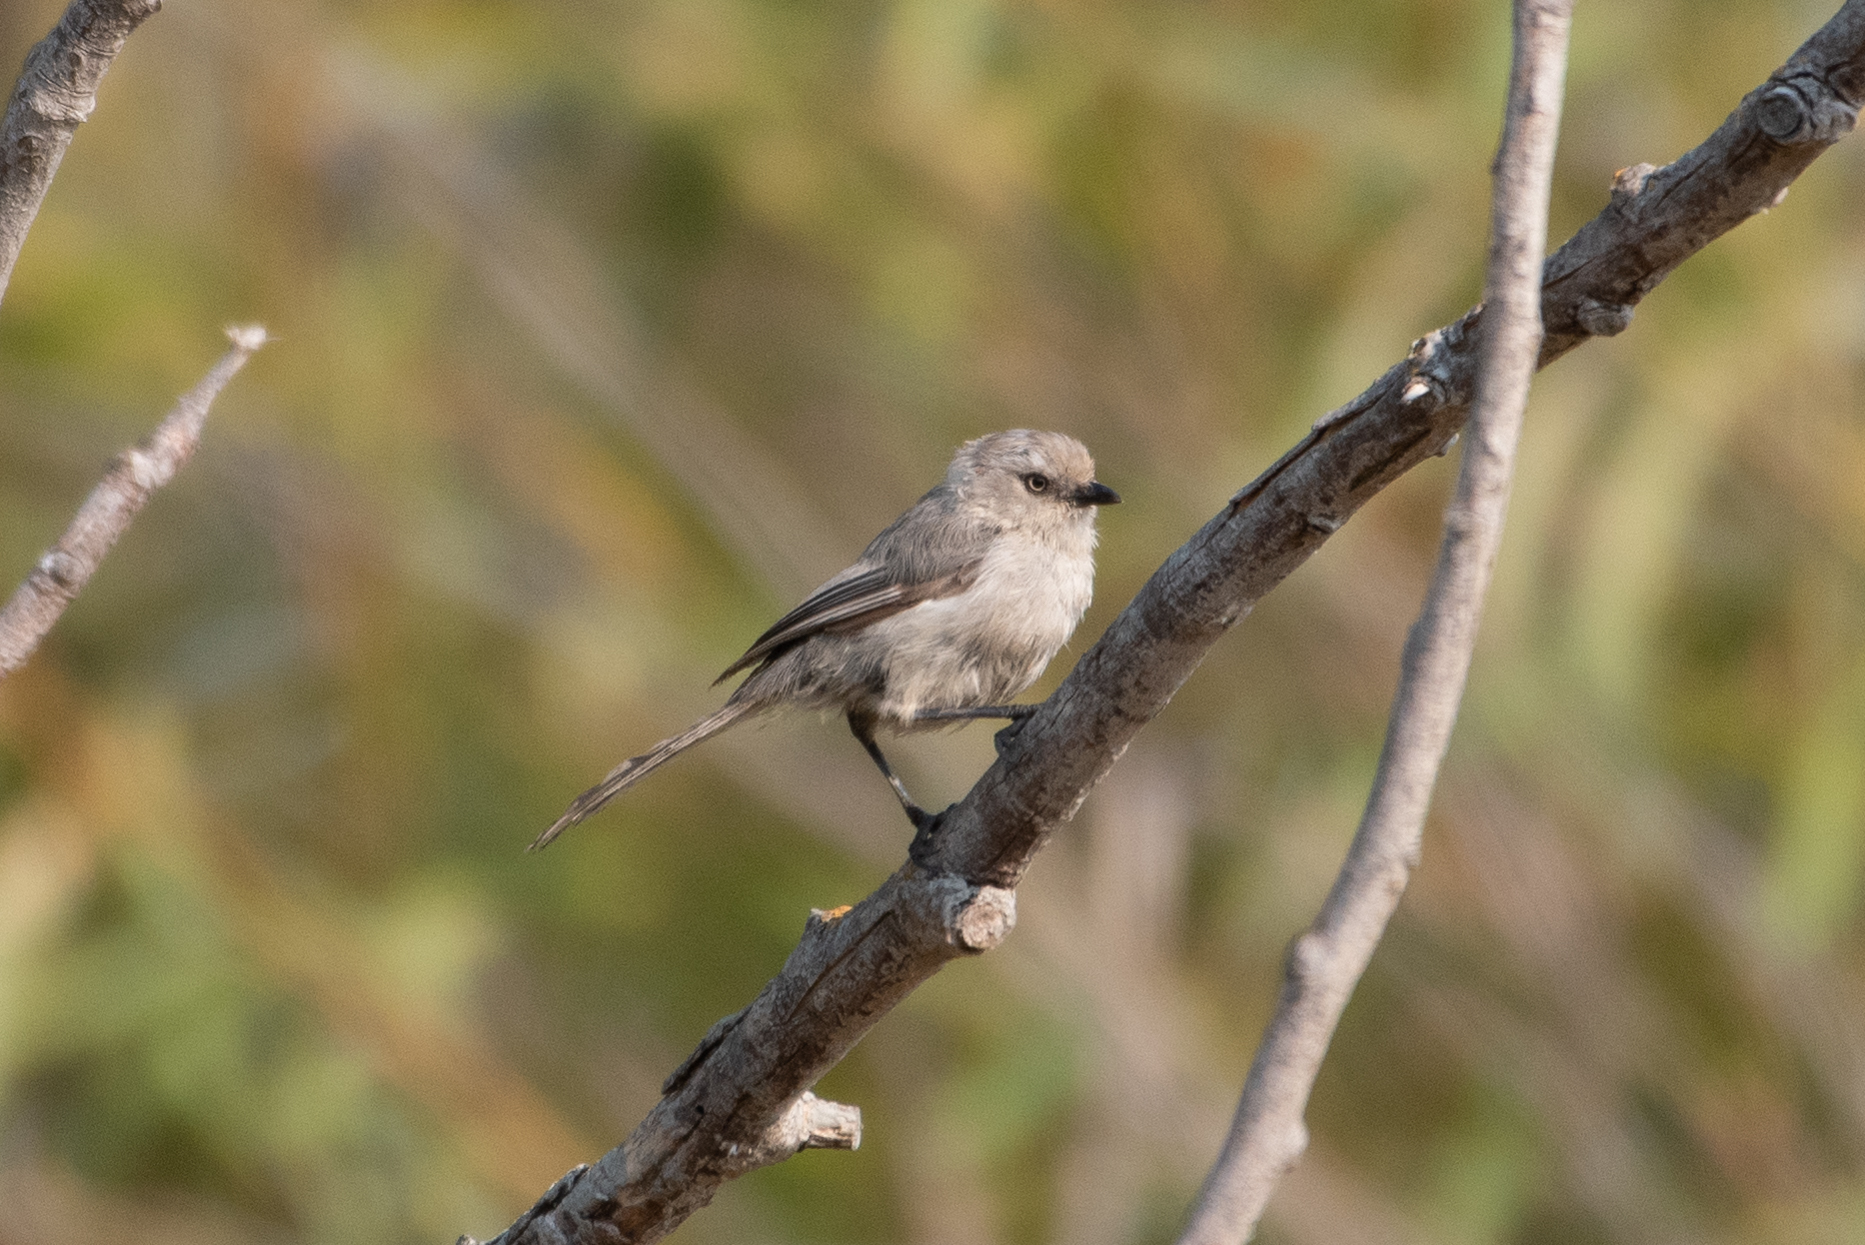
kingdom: Animalia
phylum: Chordata
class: Aves
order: Passeriformes
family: Aegithalidae
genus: Psaltriparus
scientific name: Psaltriparus minimus
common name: American bushtit
